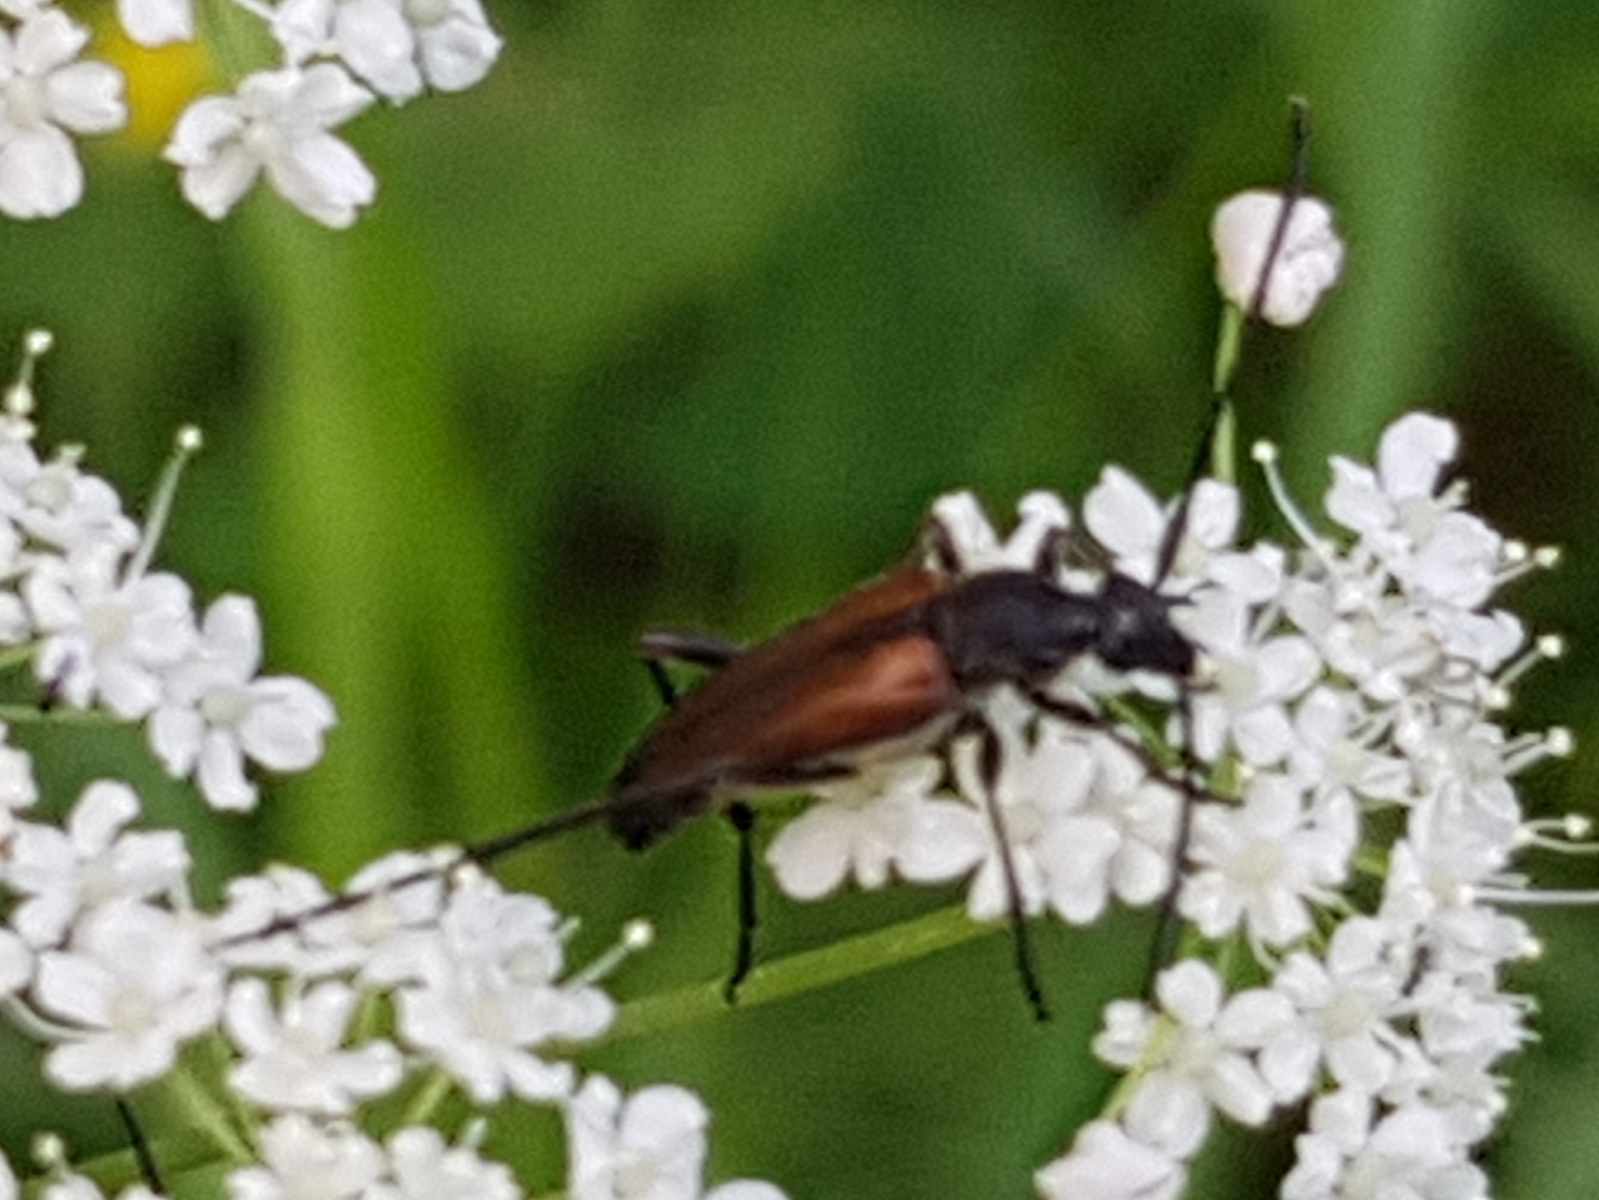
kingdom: Animalia
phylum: Arthropoda
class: Insecta
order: Coleoptera
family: Cerambycidae
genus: Stenurella
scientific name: Stenurella melanura
